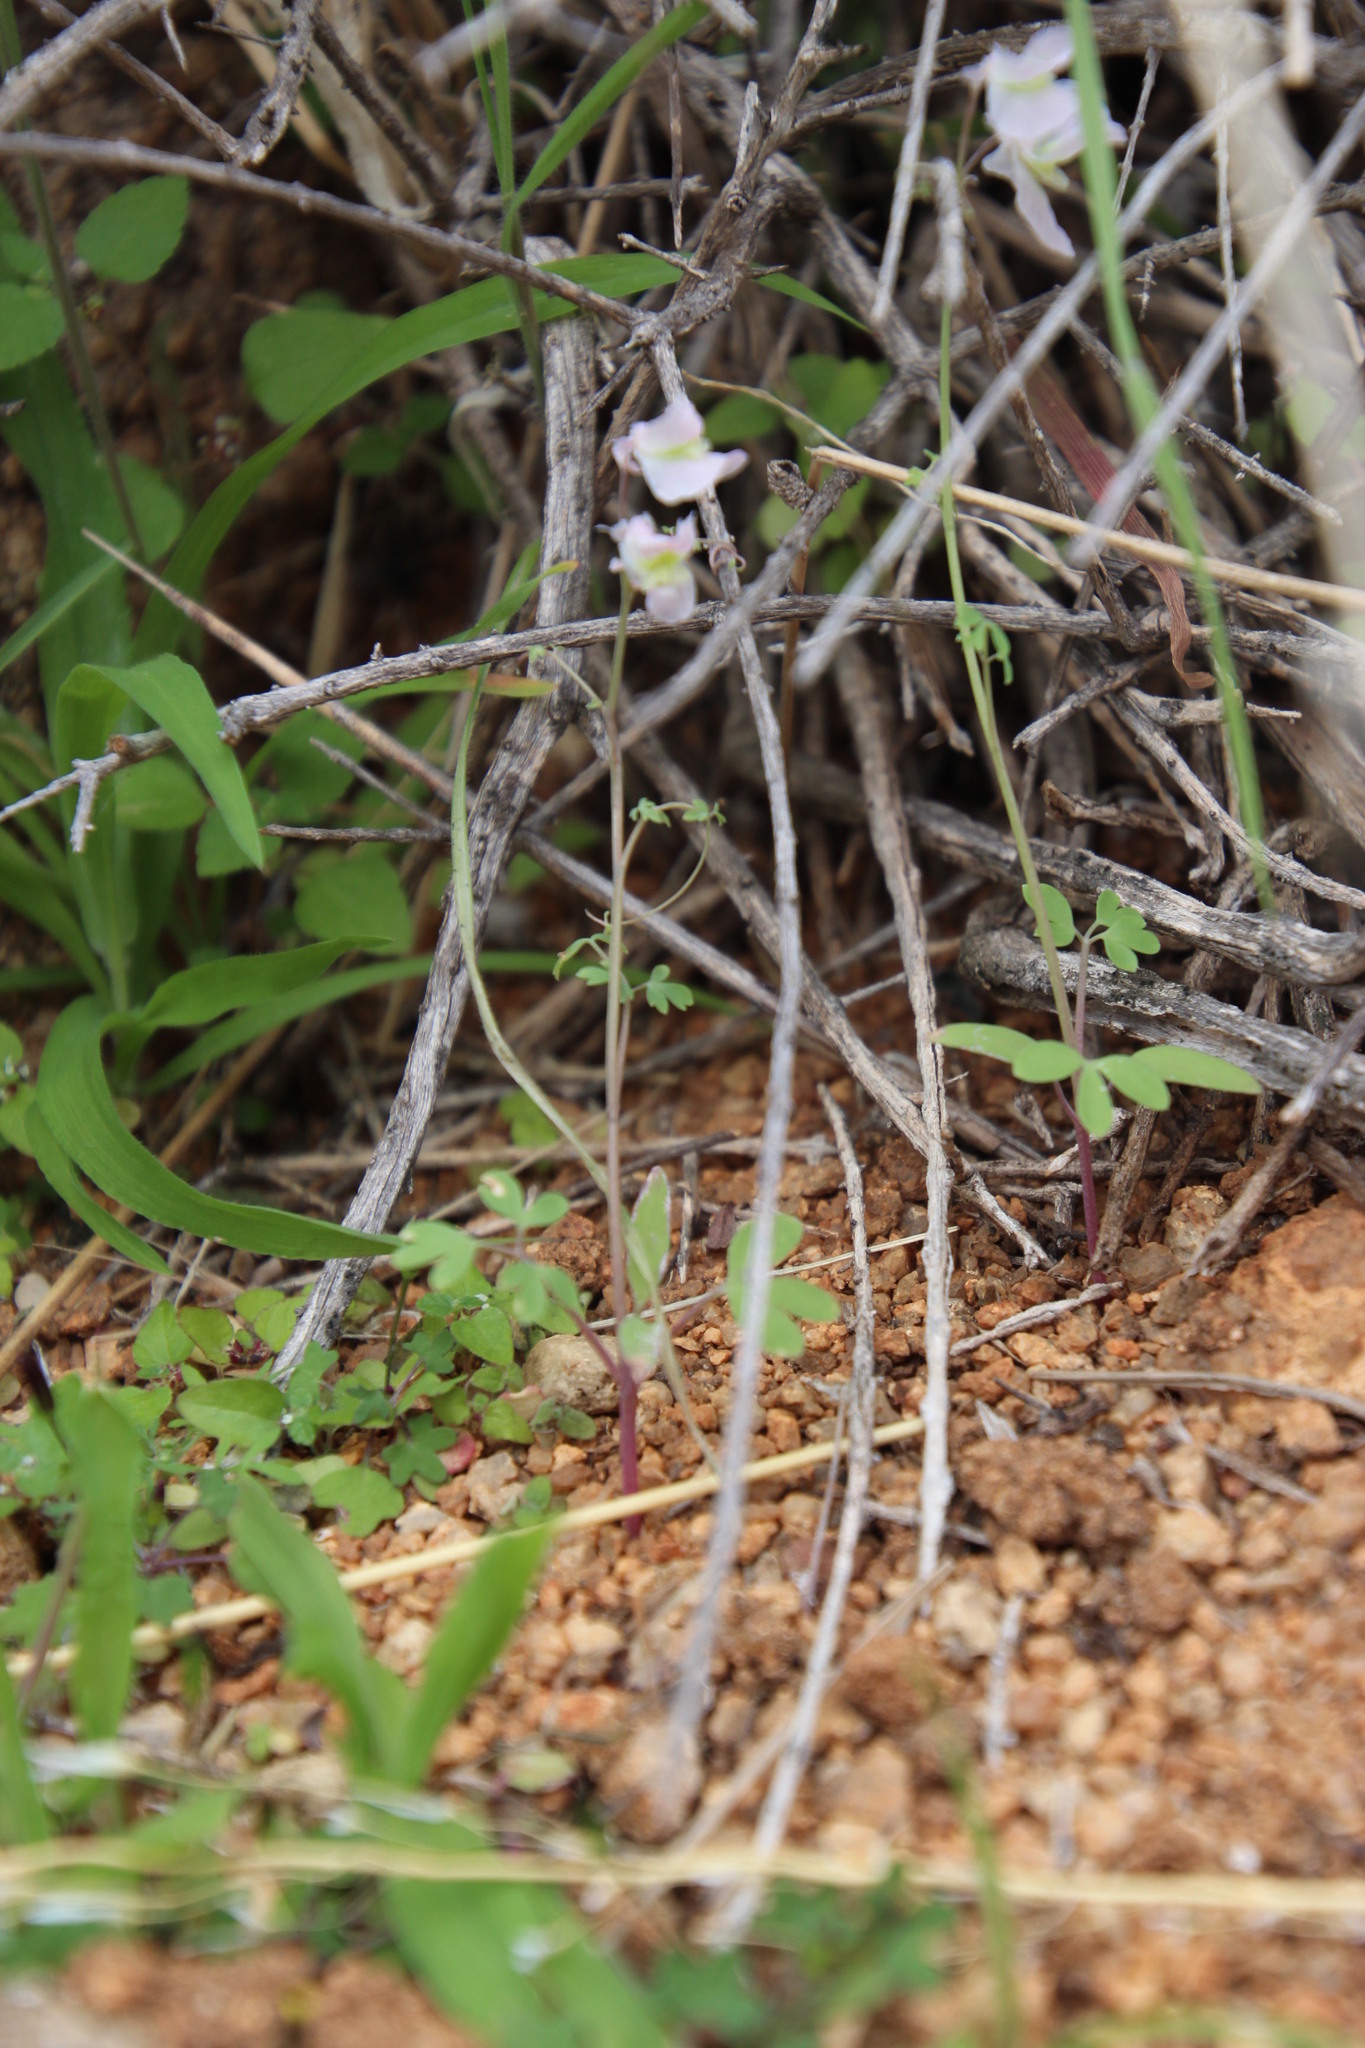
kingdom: Plantae
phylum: Tracheophyta
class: Magnoliopsida
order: Ranunculales
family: Papaveraceae
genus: Cysticapnos
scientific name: Cysticapnos vesicaria
